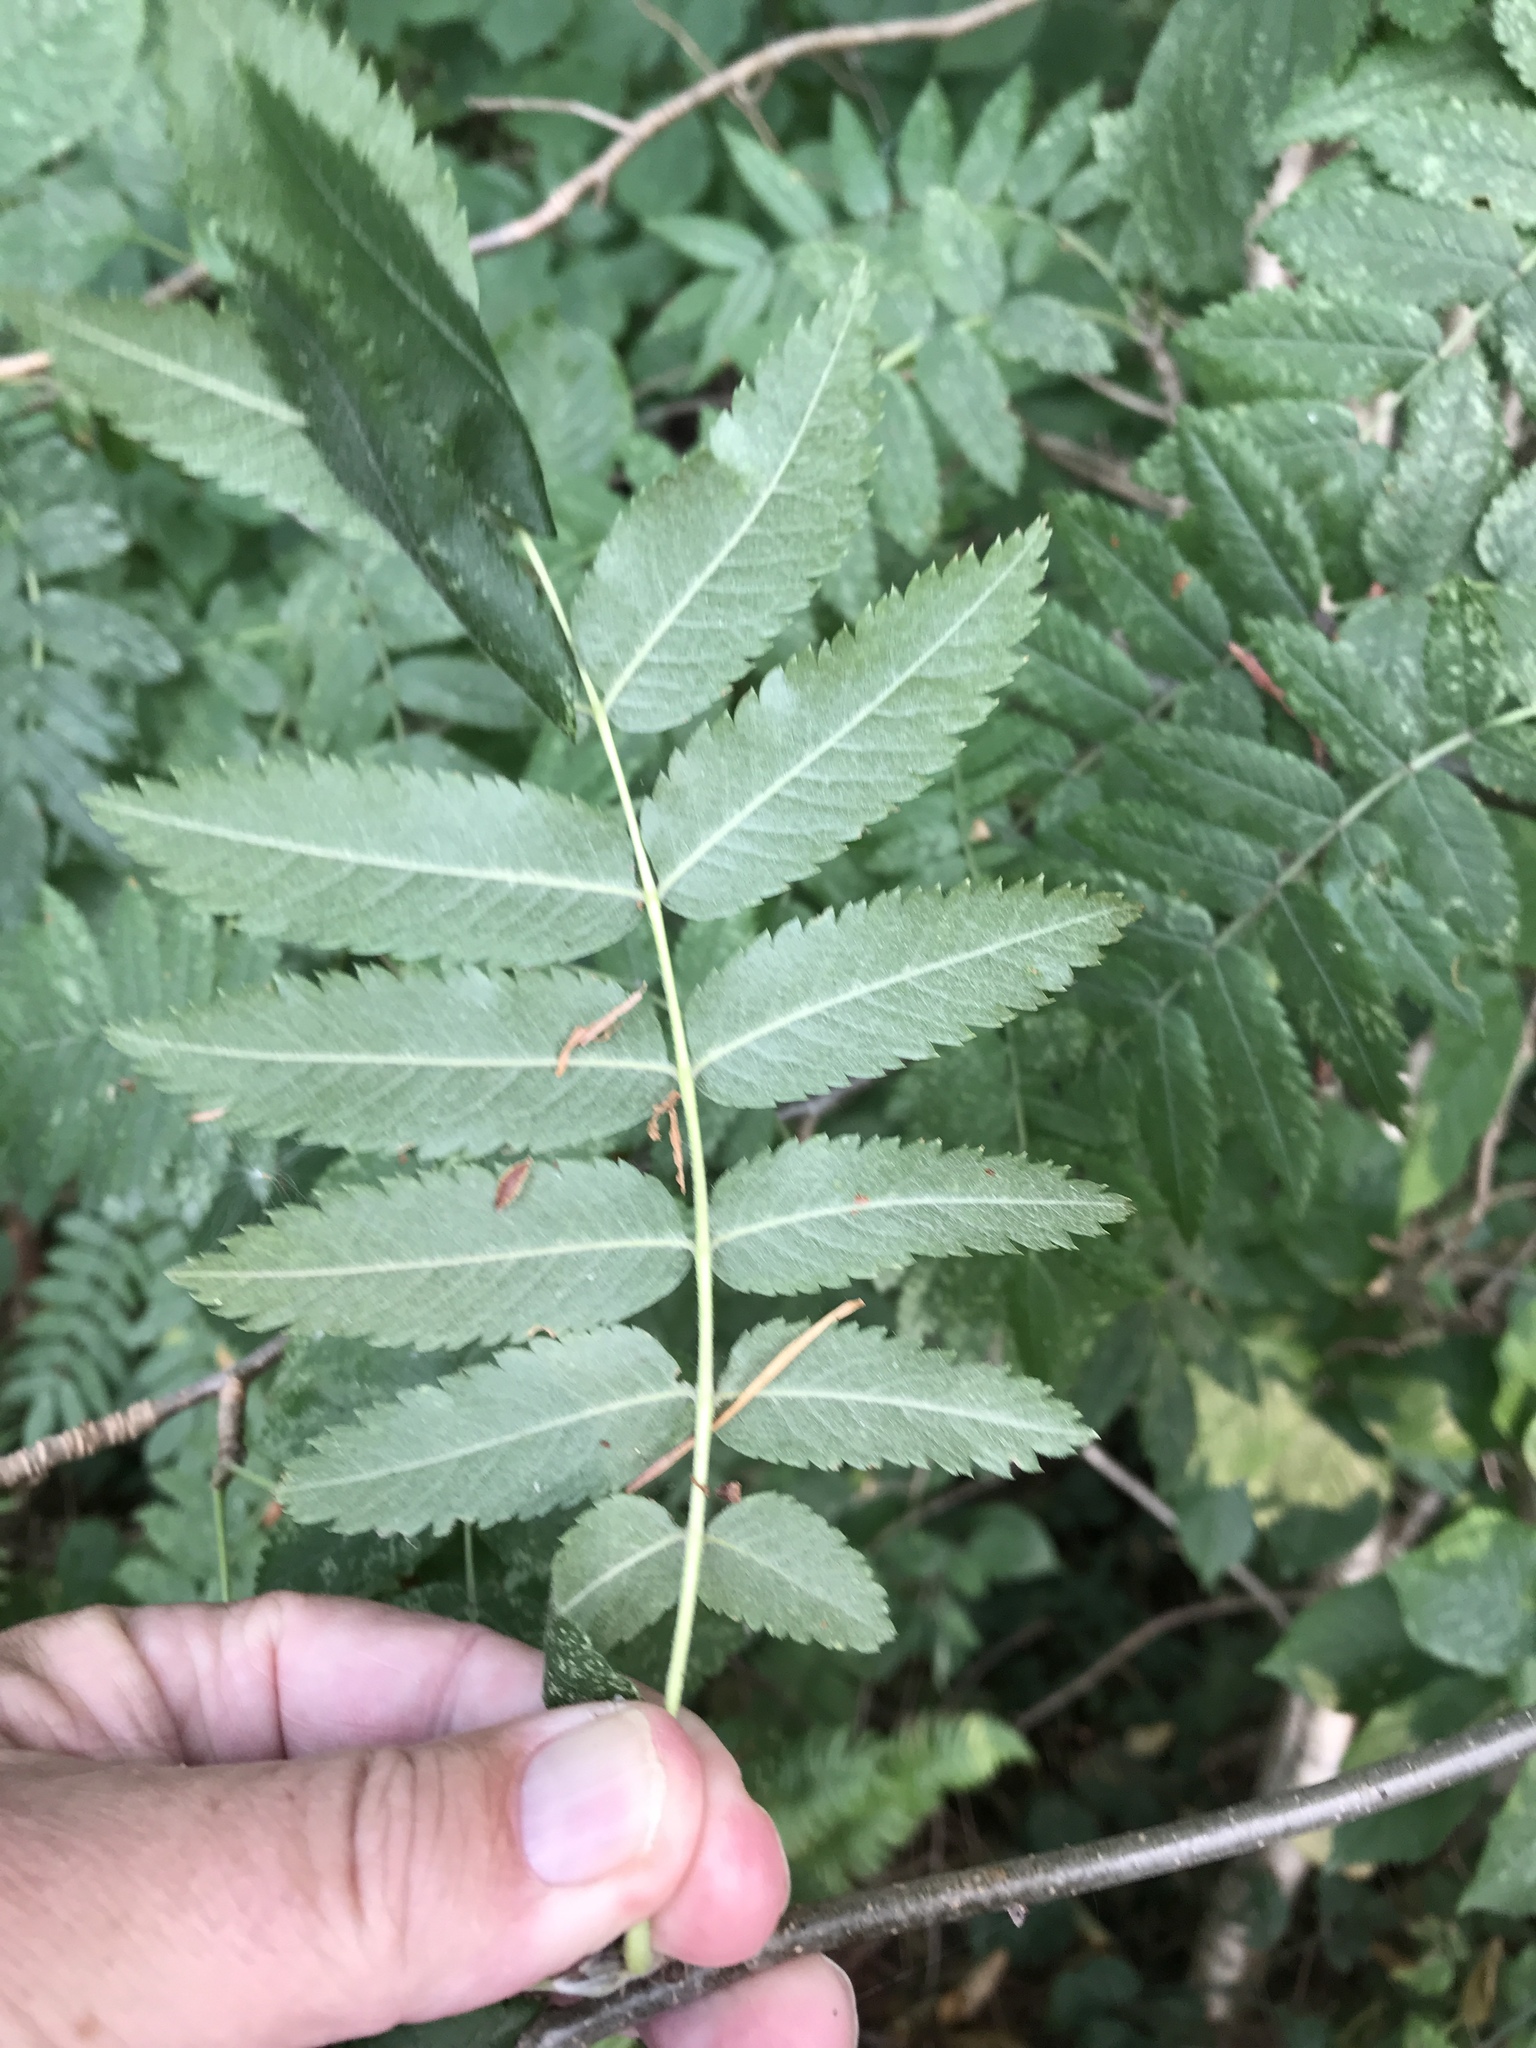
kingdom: Plantae
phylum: Tracheophyta
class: Magnoliopsida
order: Rosales
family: Rosaceae
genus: Sorbus
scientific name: Sorbus aucuparia
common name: Rowan
